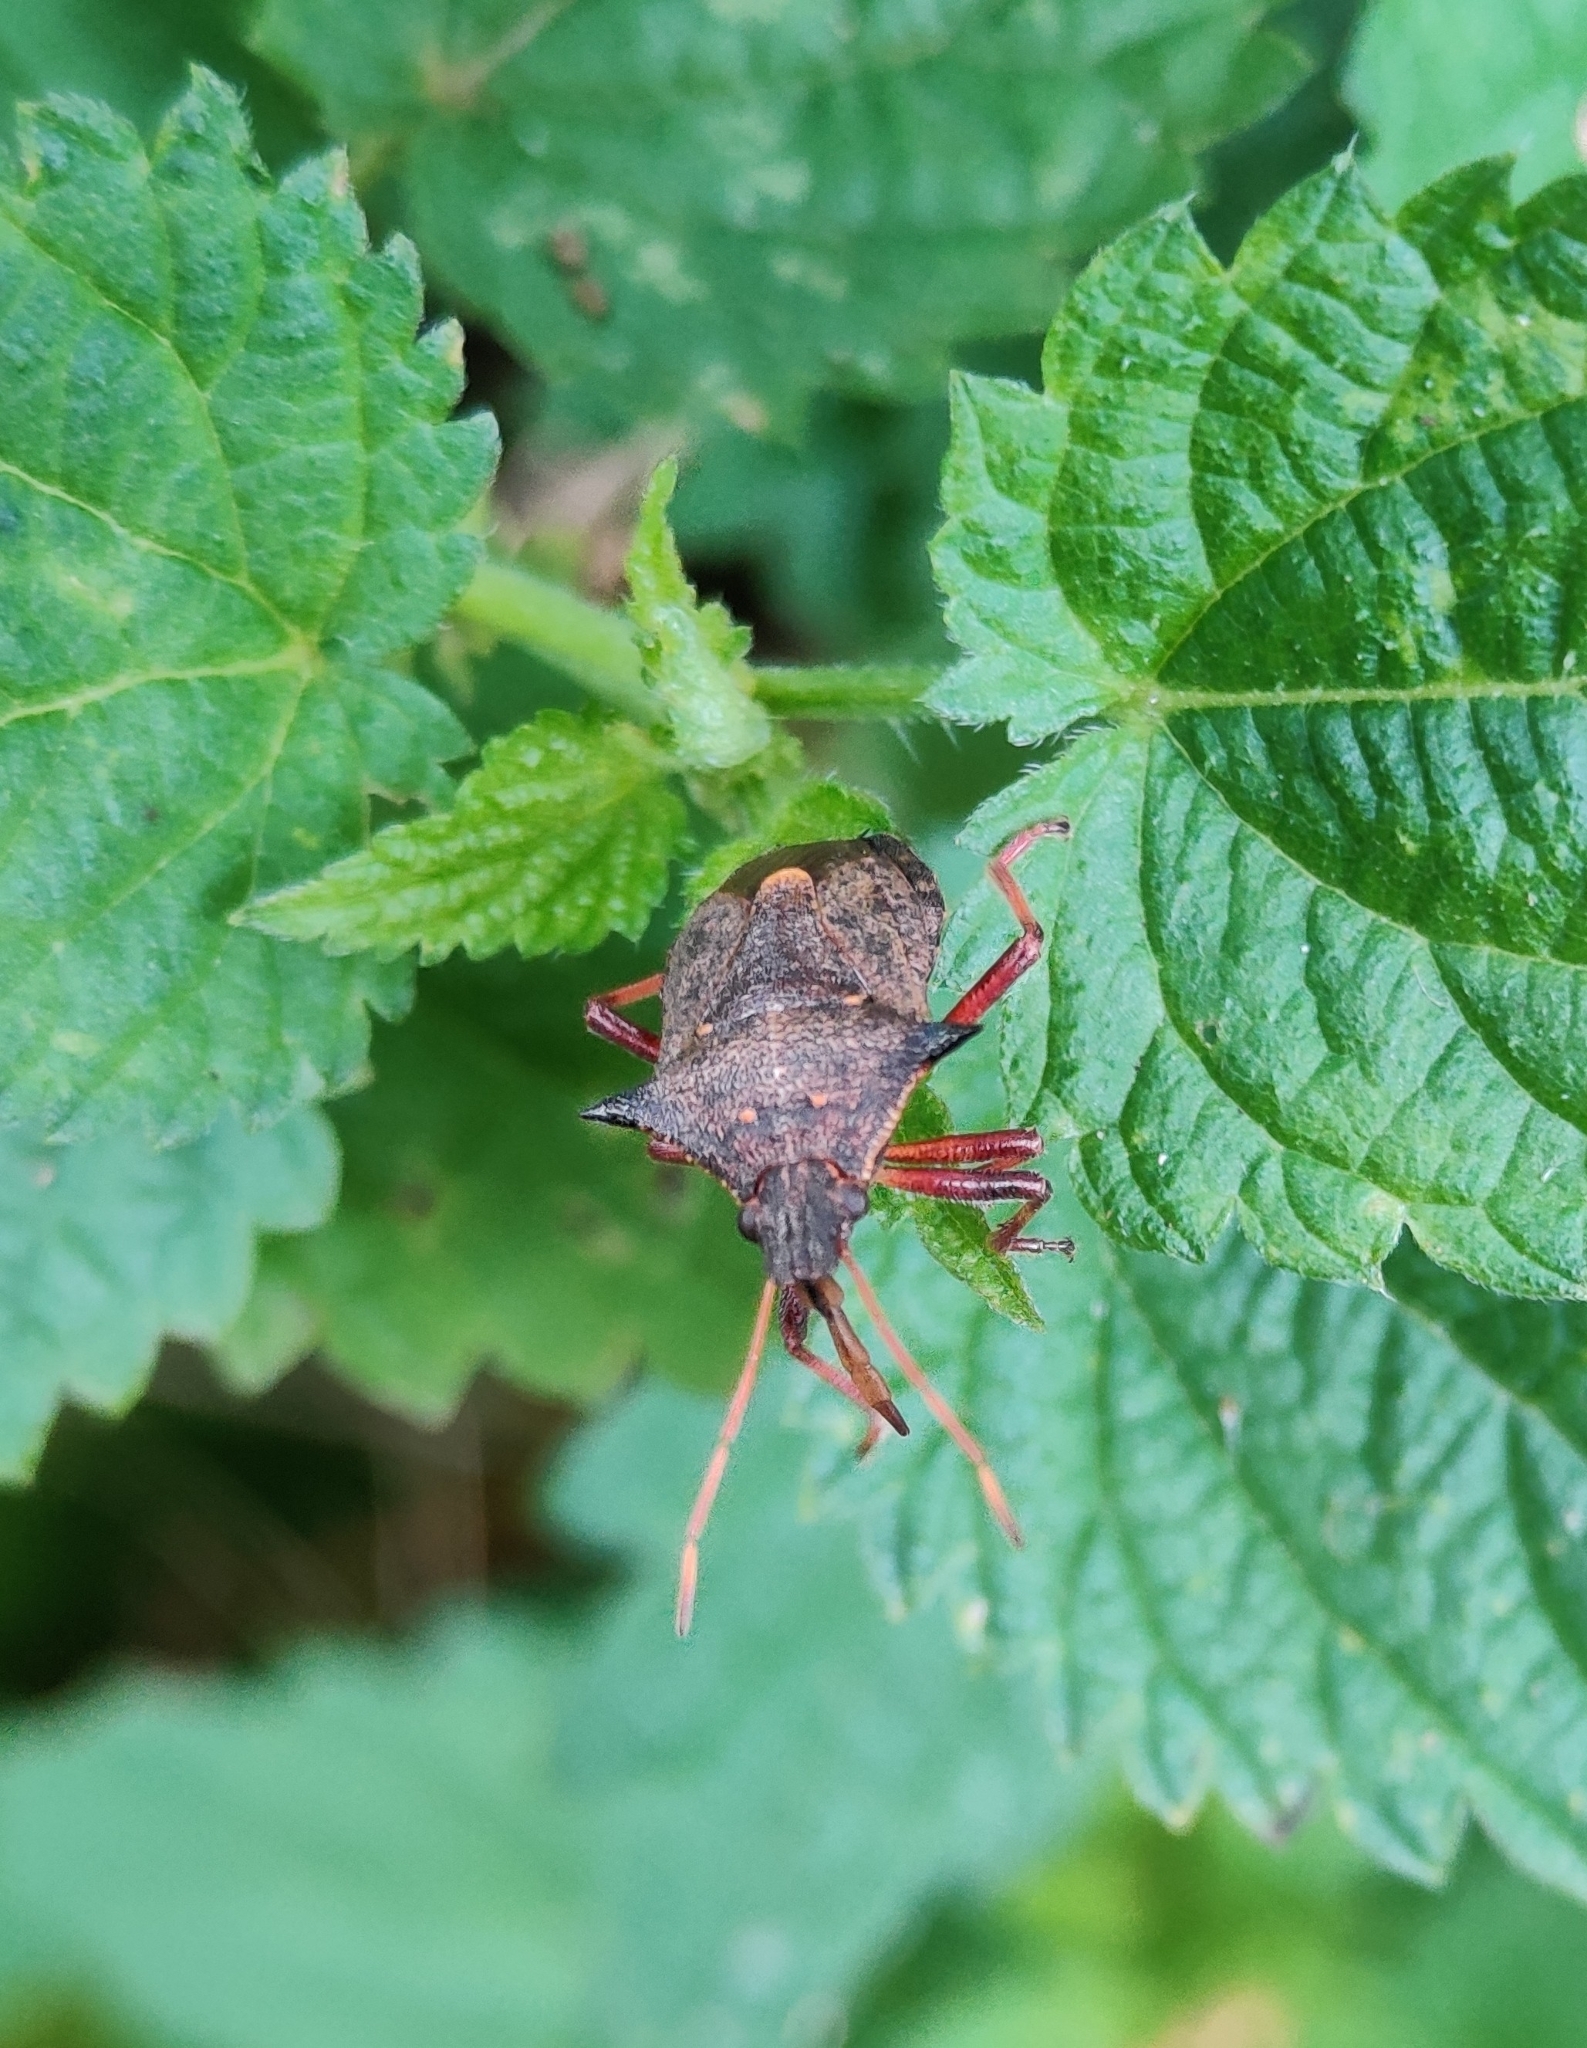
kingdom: Animalia
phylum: Arthropoda
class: Insecta
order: Hemiptera
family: Pentatomidae
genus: Picromerus
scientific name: Picromerus bidens
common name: Spiked shieldbug
